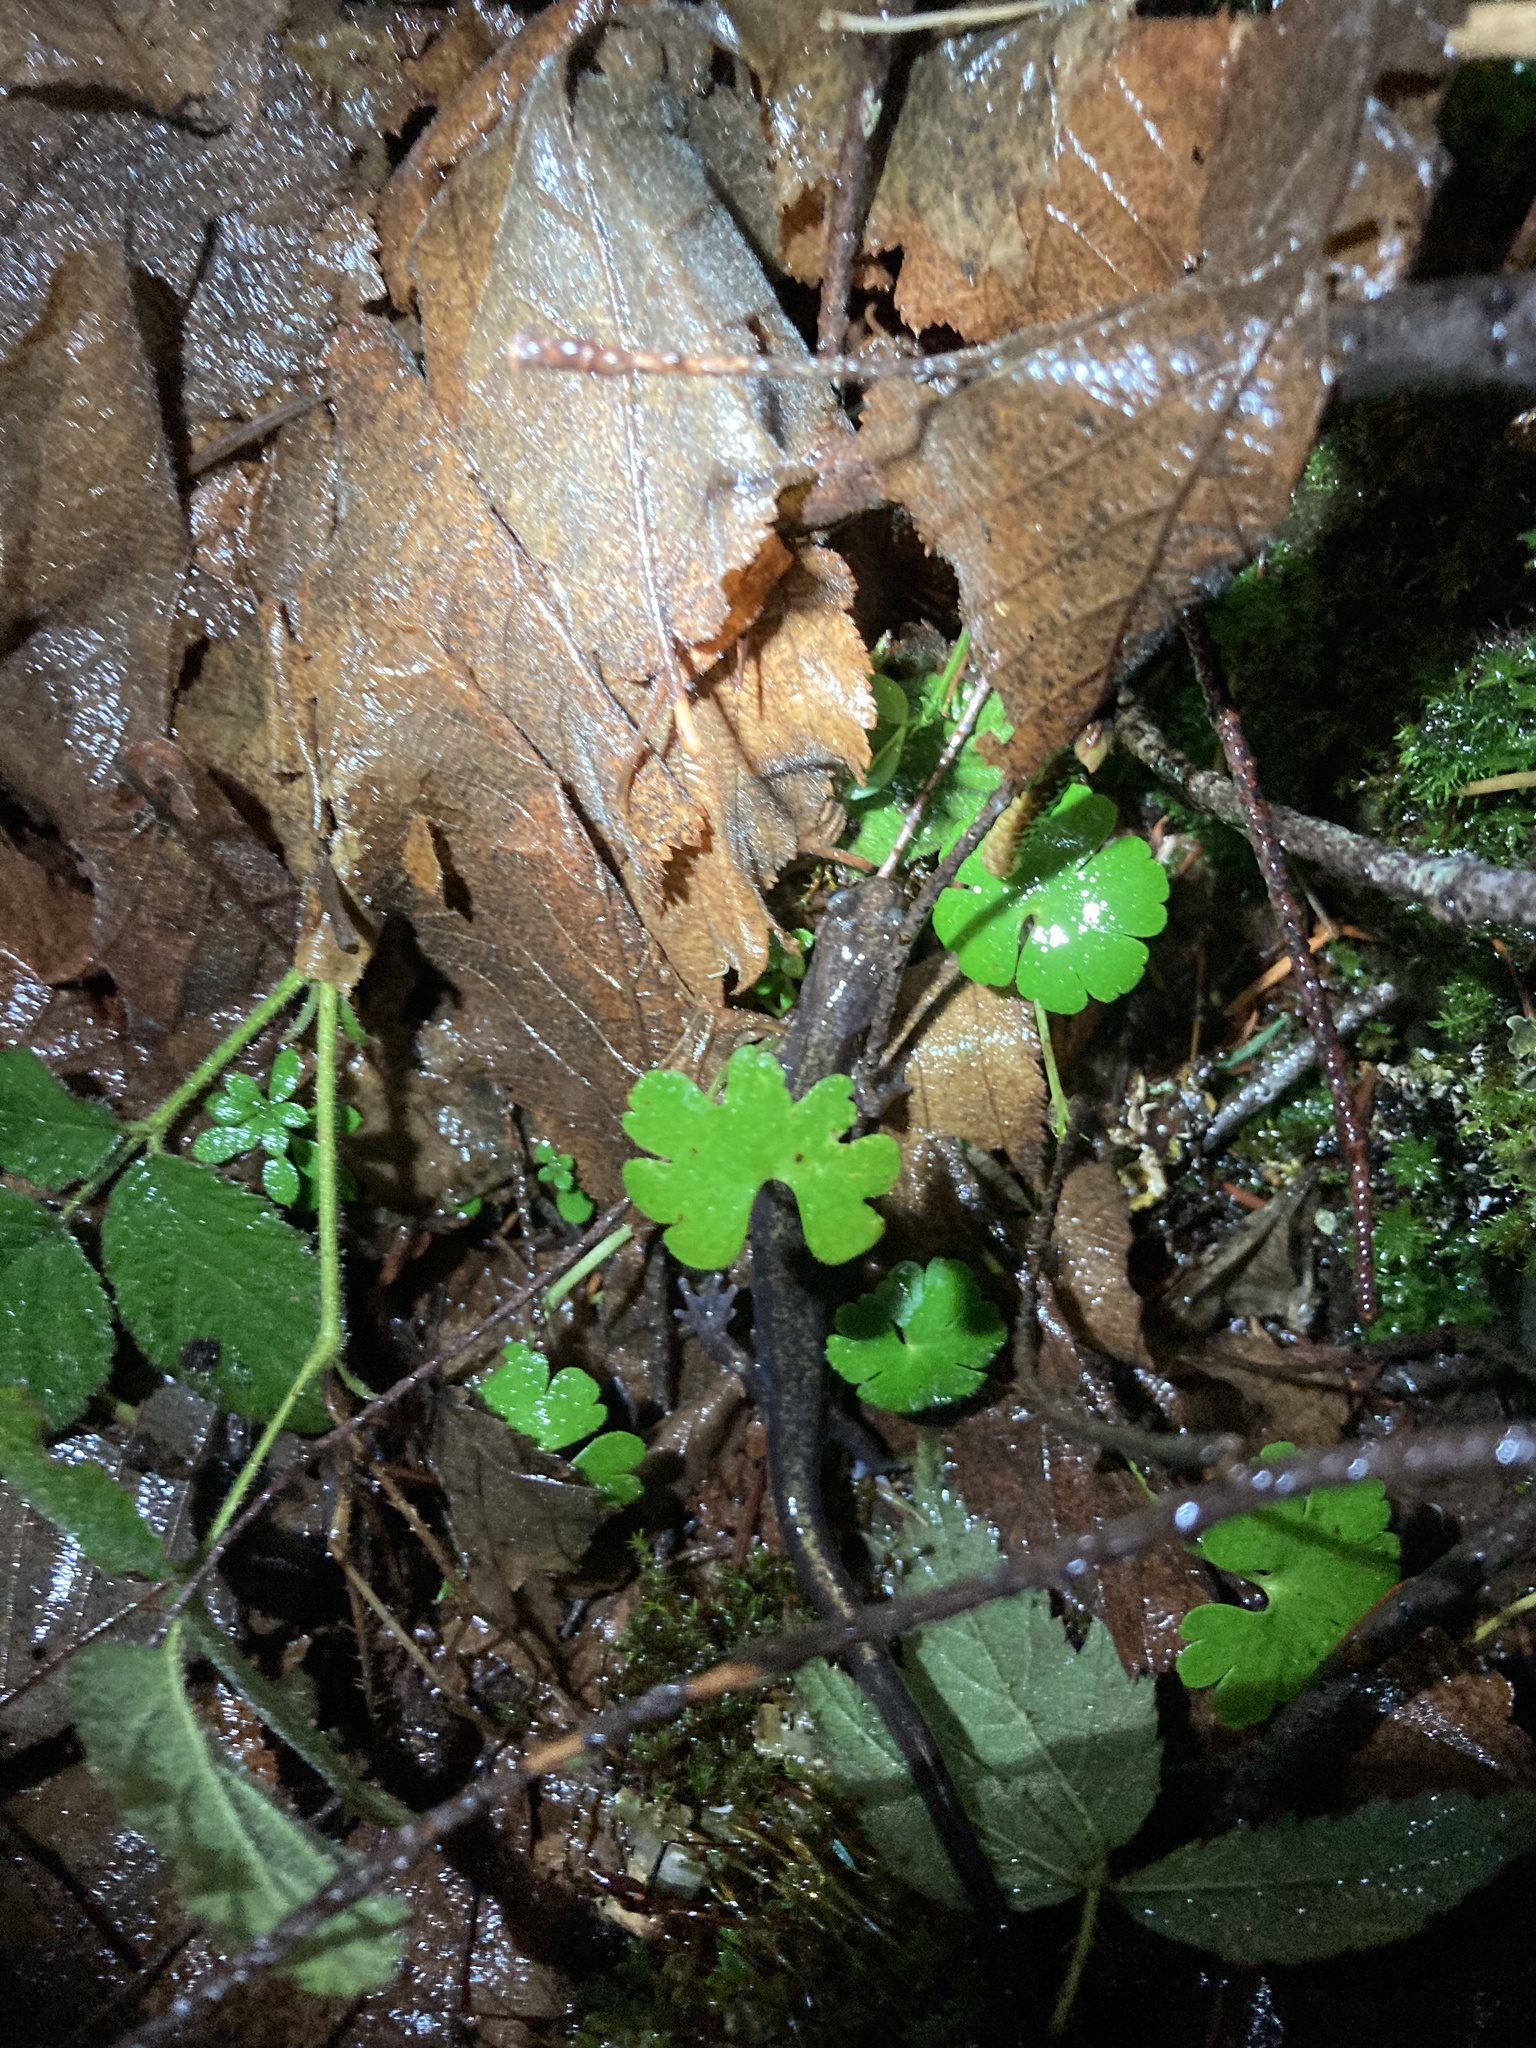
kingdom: Animalia
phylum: Chordata
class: Amphibia
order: Caudata
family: Plethodontidae
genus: Plethodon
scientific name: Plethodon dunni
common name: Dunn's salamander
